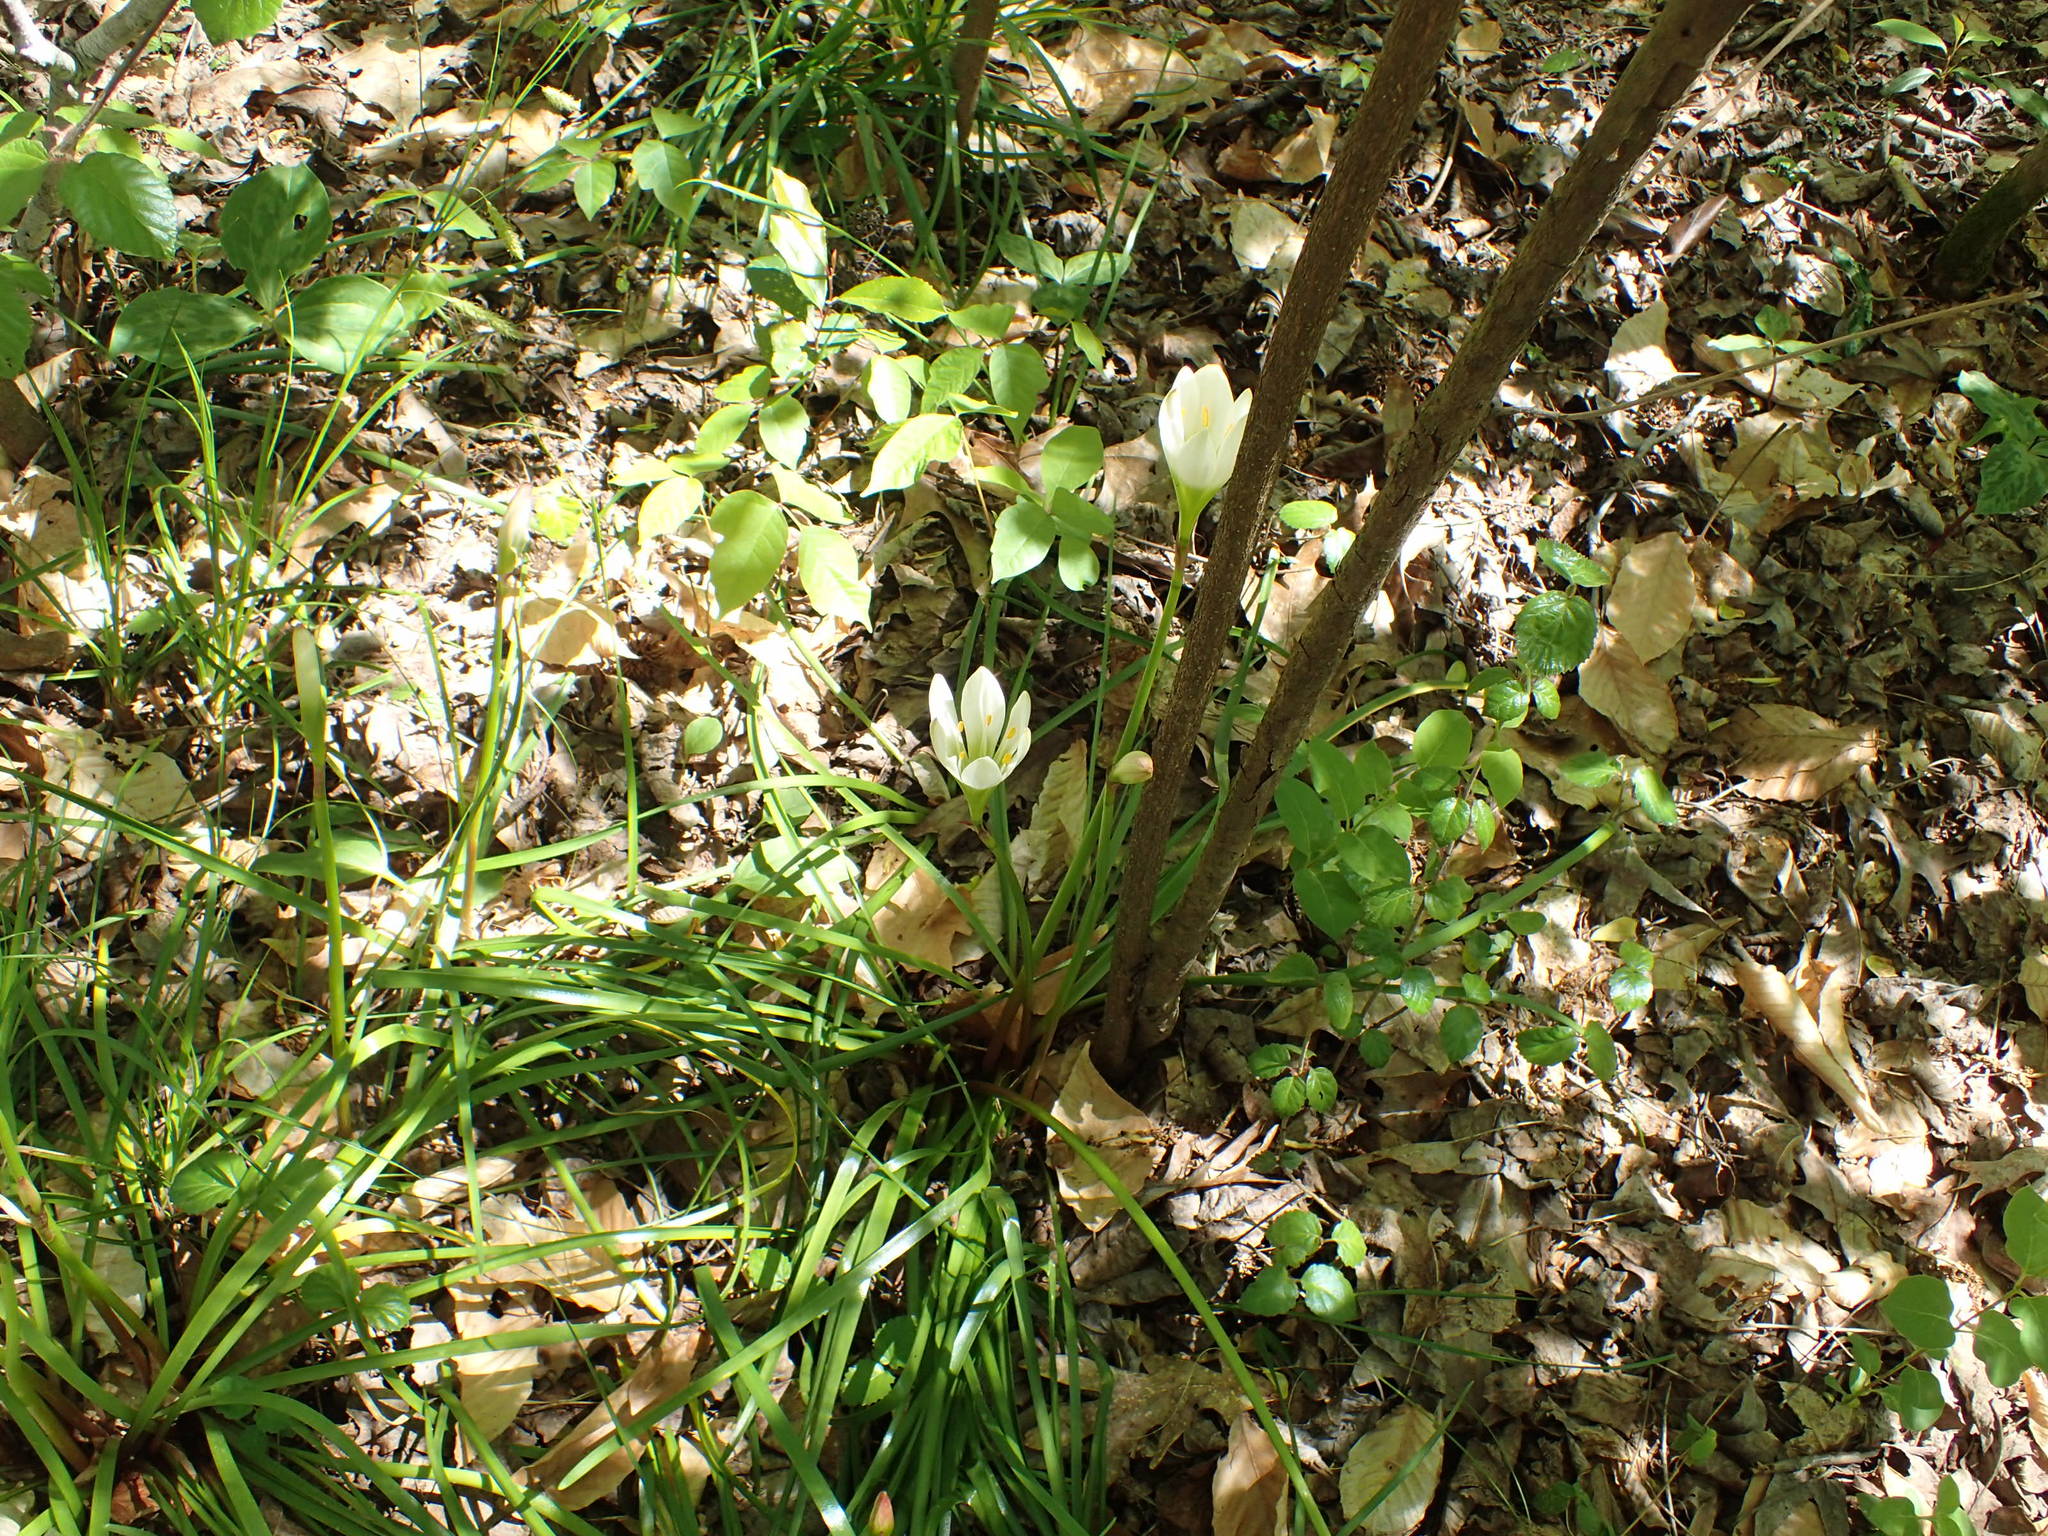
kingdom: Plantae
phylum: Tracheophyta
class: Liliopsida
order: Asparagales
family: Amaryllidaceae
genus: Zephyranthes
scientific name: Zephyranthes atamasco
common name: Atamasco lily
